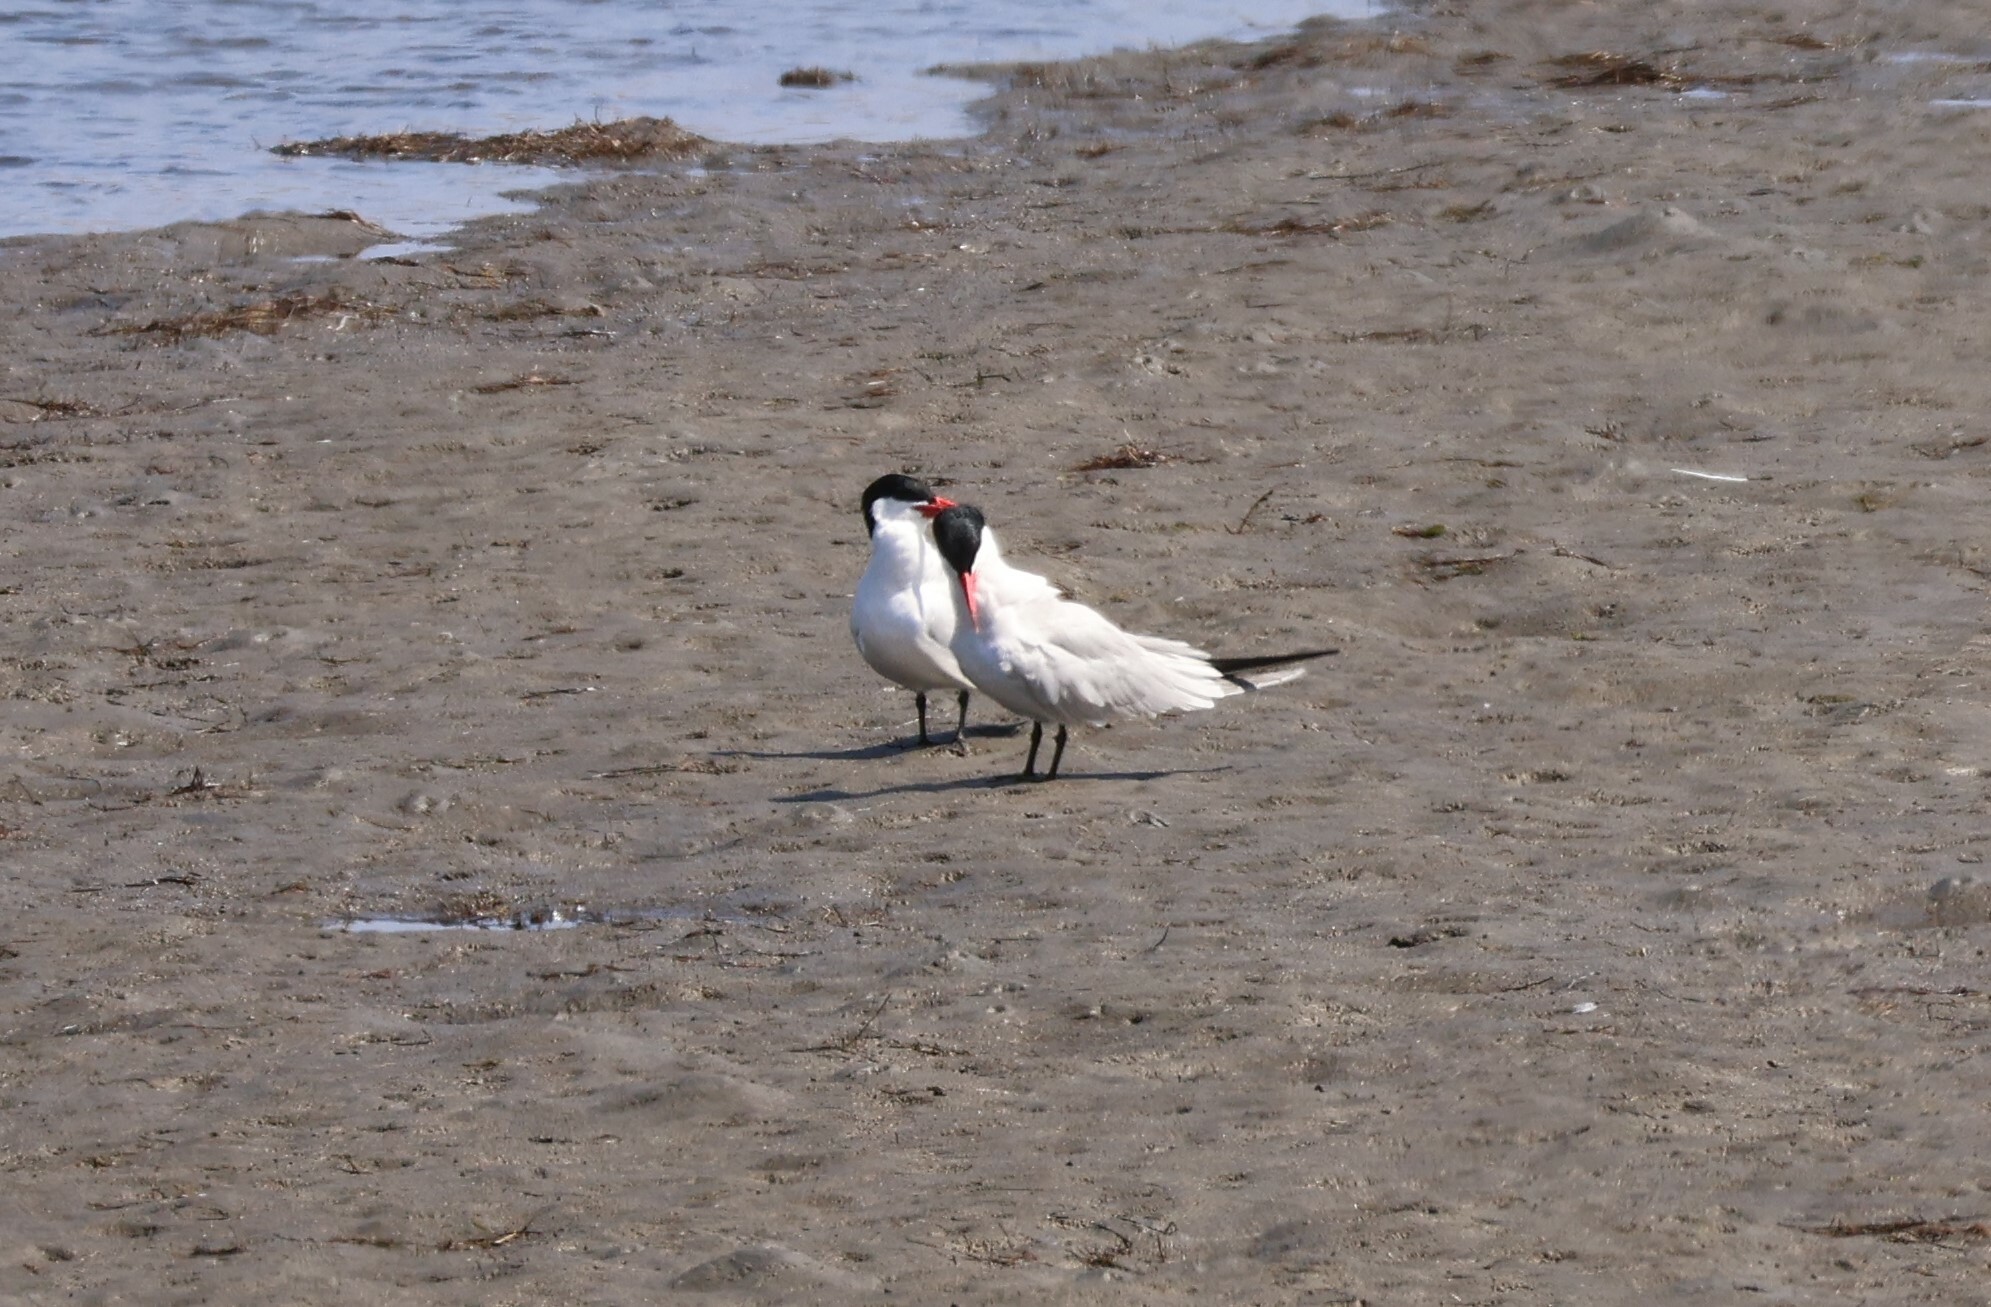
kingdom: Animalia
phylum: Chordata
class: Aves
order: Charadriiformes
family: Laridae
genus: Hydroprogne
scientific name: Hydroprogne caspia
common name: Caspian tern
